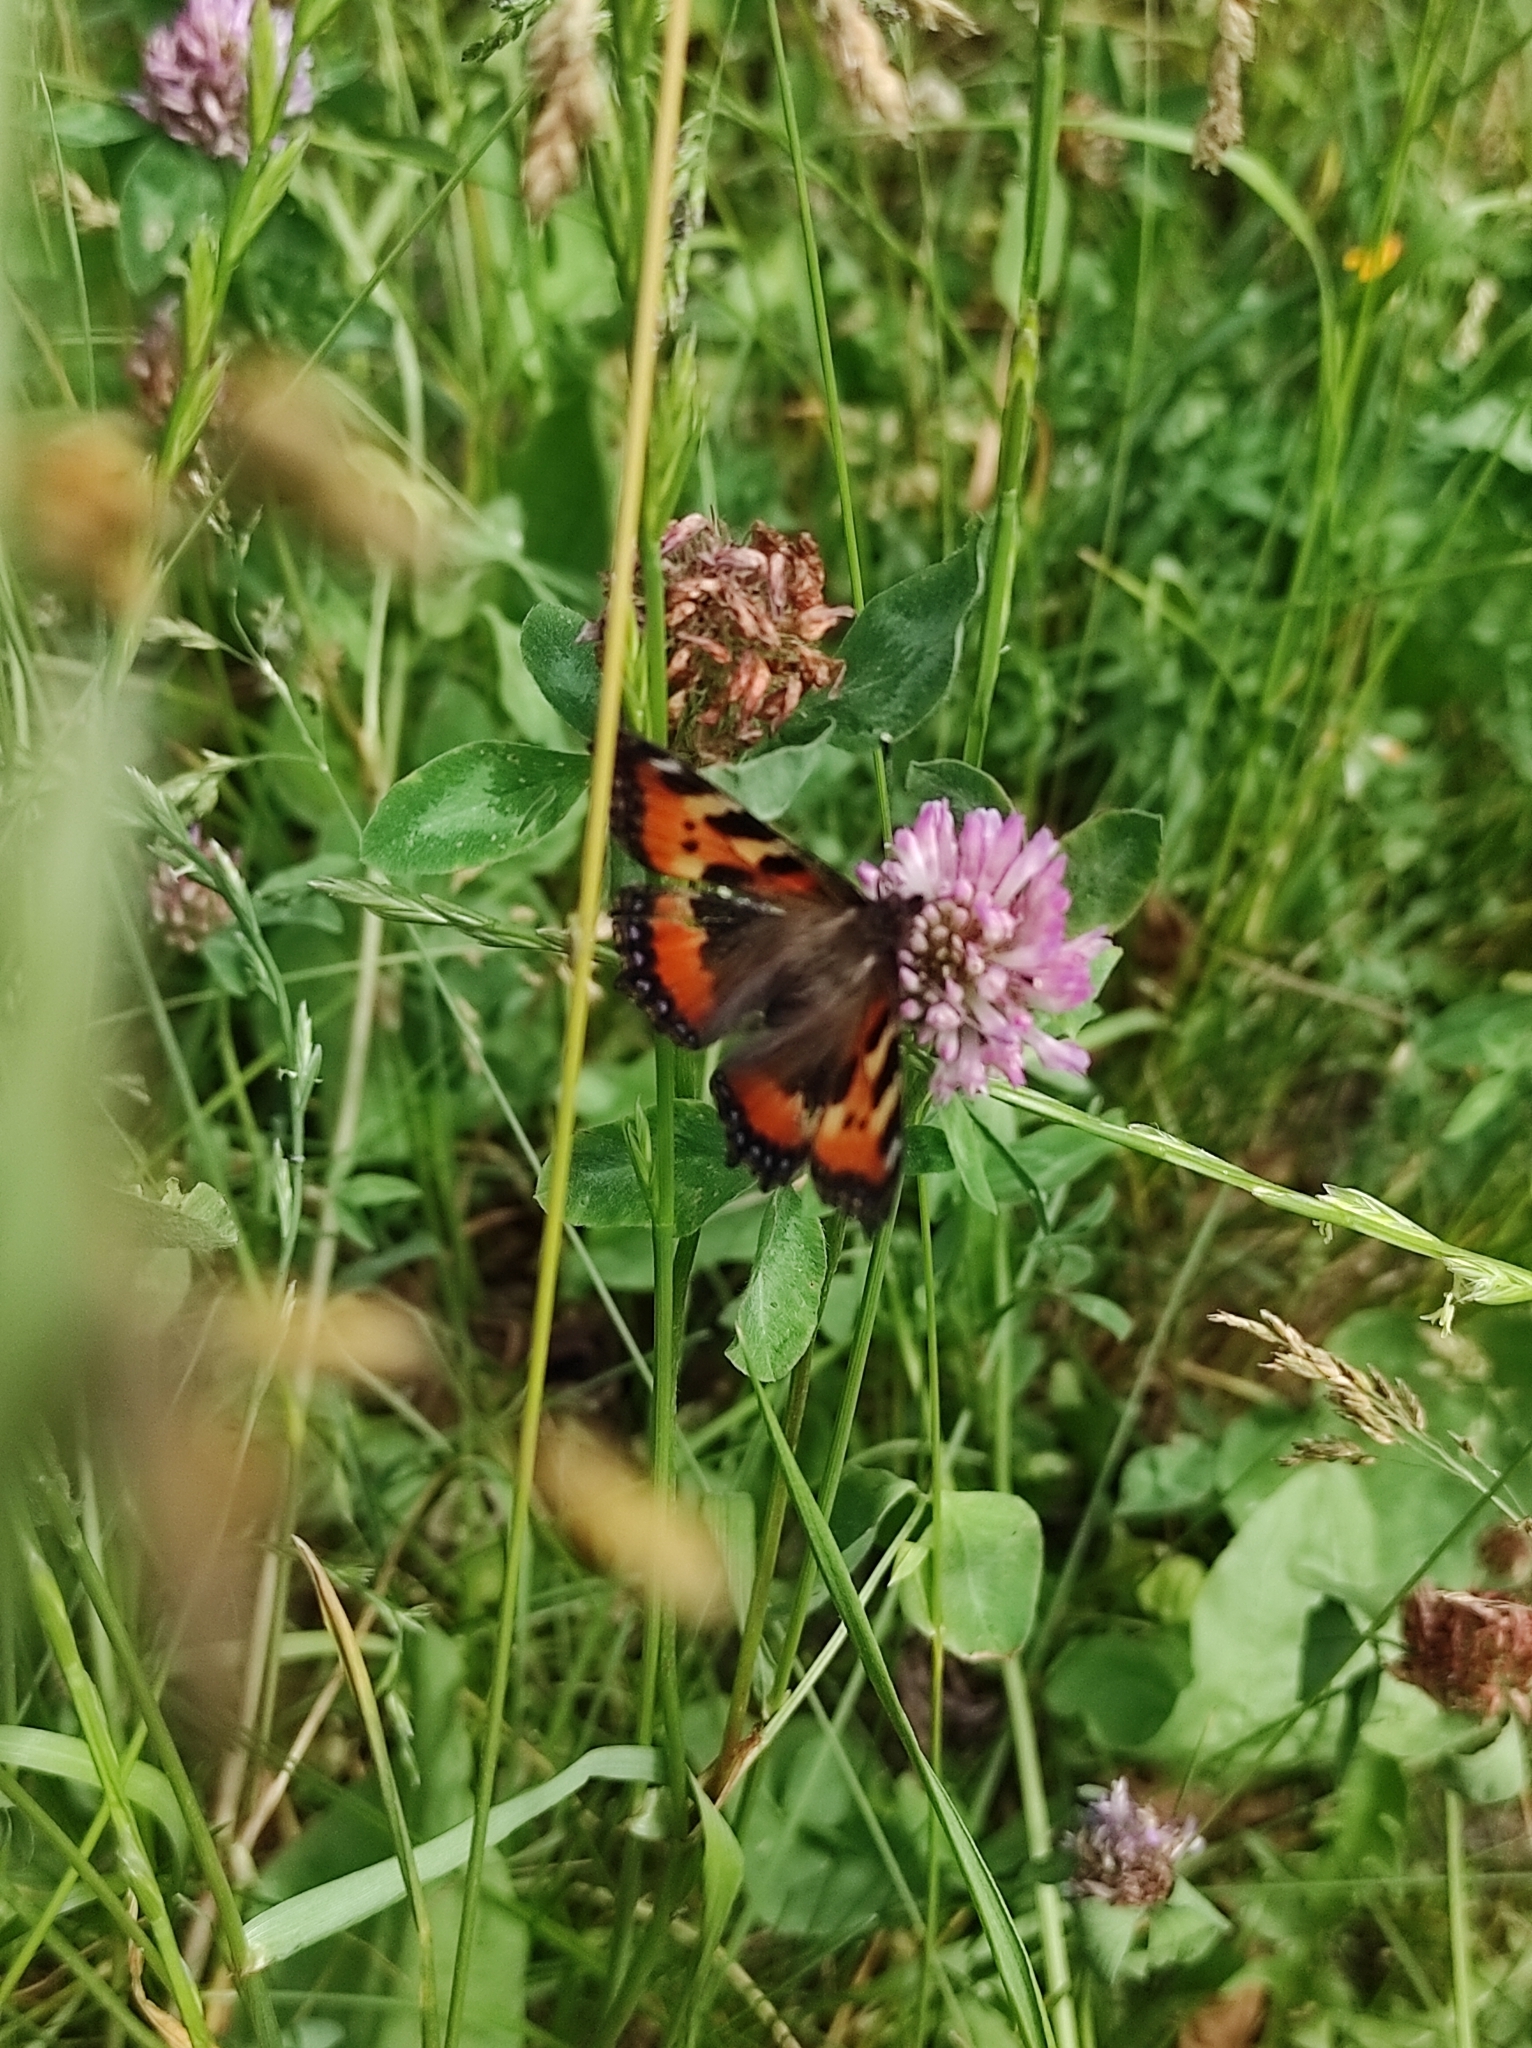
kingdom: Animalia
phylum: Arthropoda
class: Insecta
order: Lepidoptera
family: Nymphalidae
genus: Aglais
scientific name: Aglais urticae
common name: Small tortoiseshell
